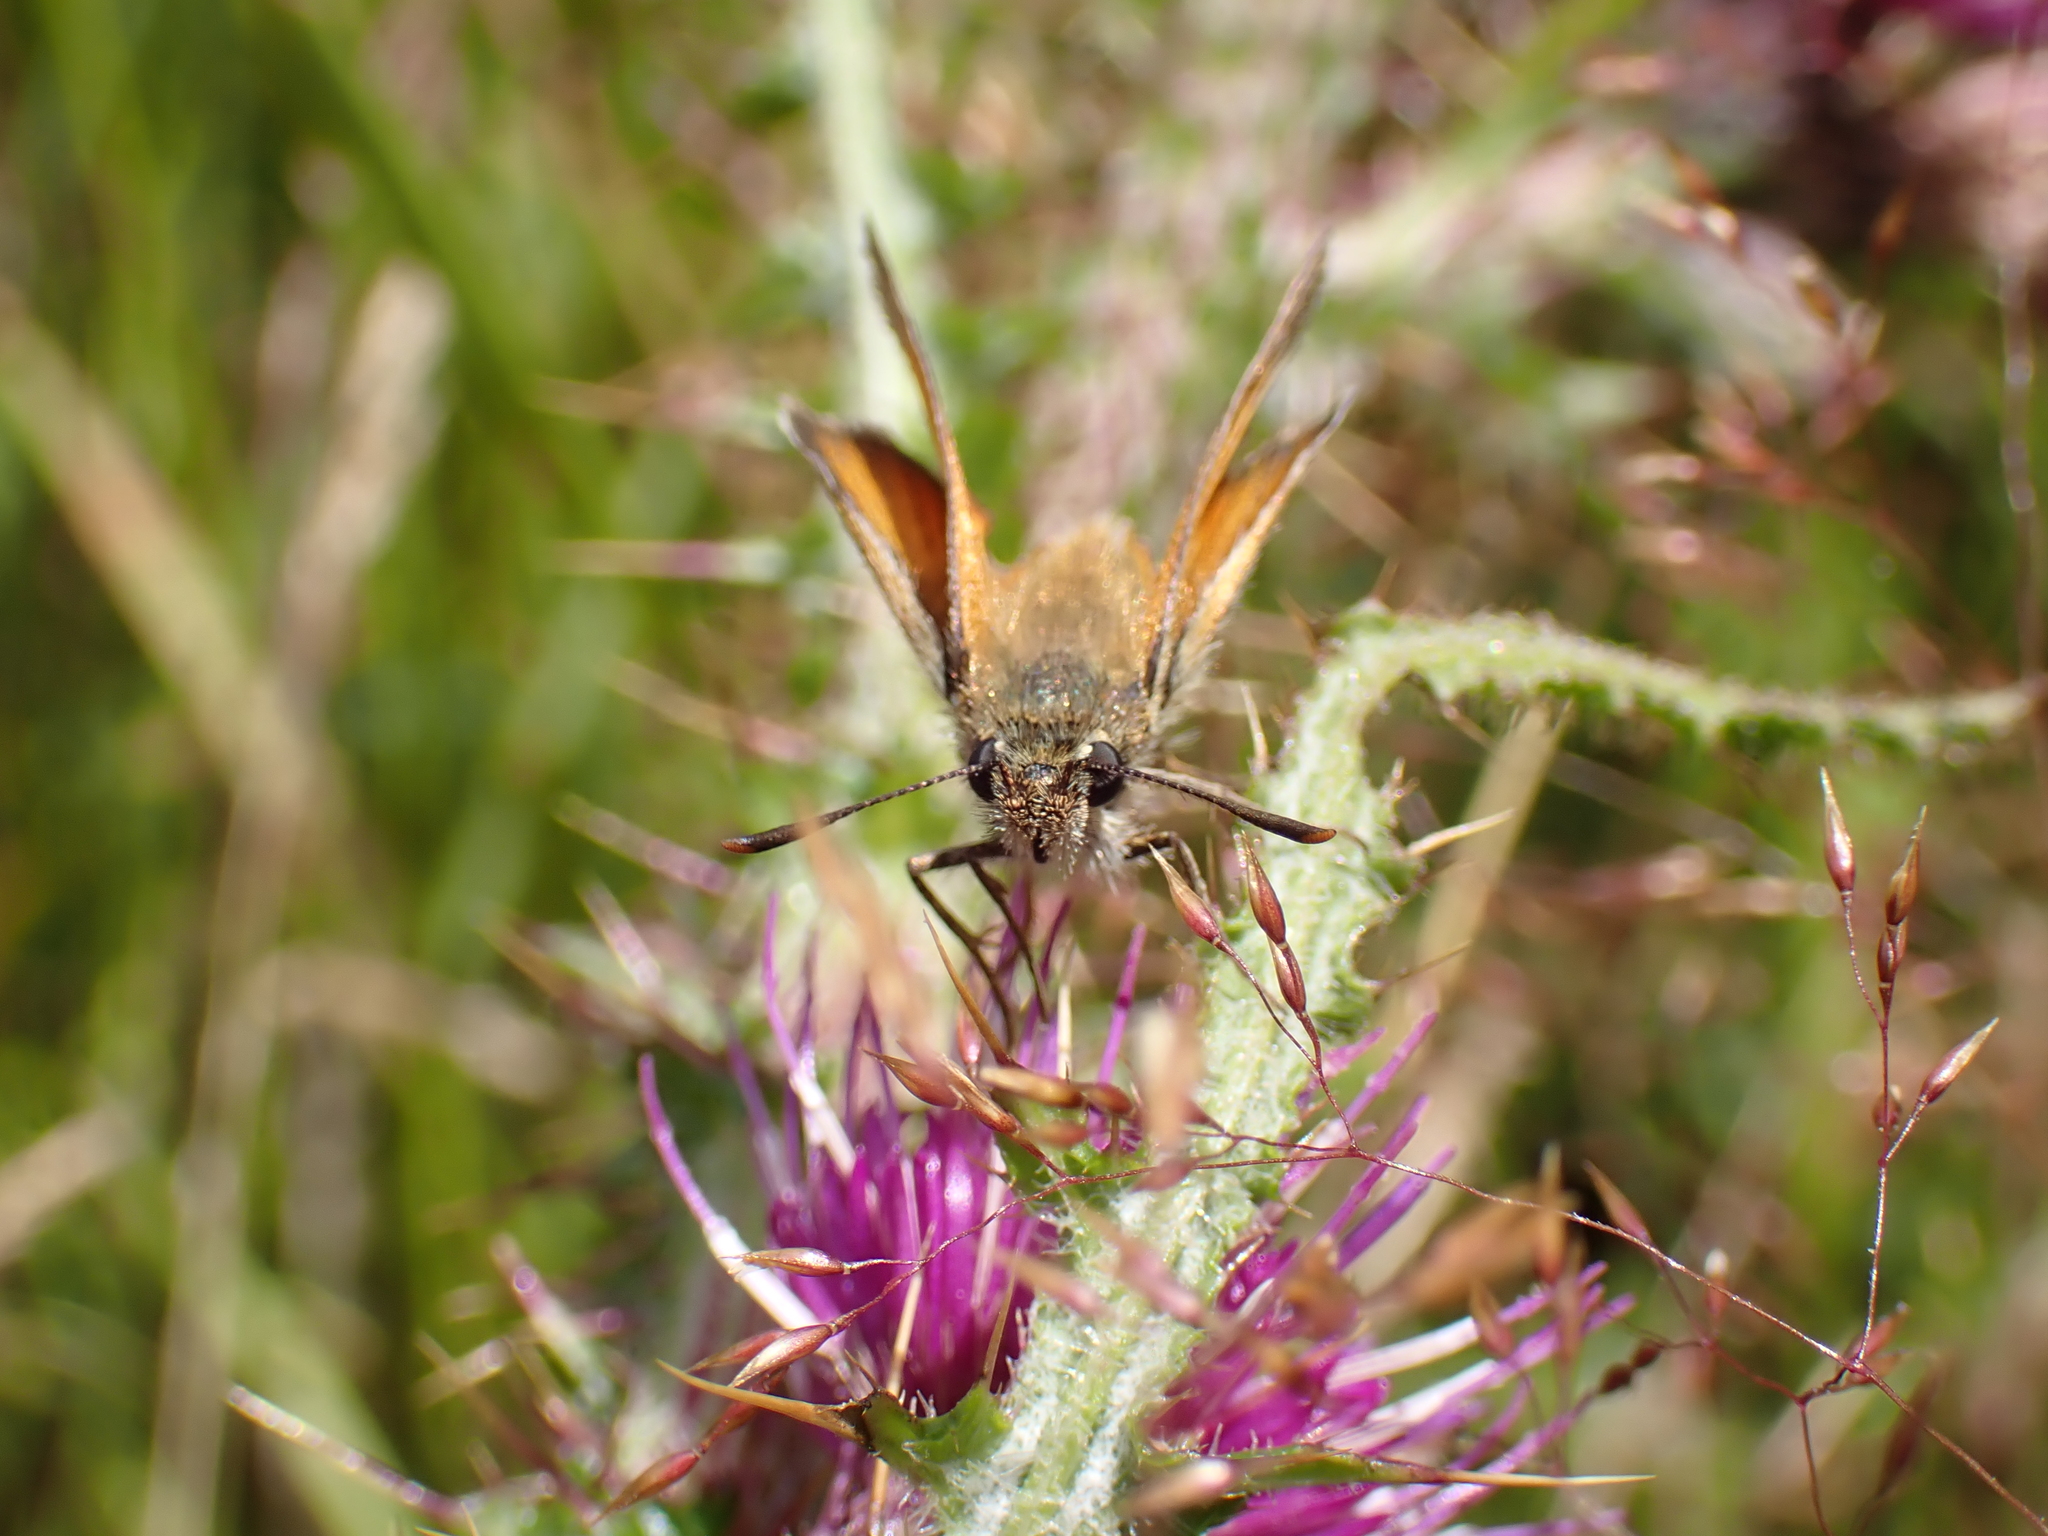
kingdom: Animalia
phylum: Arthropoda
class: Insecta
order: Lepidoptera
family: Hesperiidae
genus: Thymelicus
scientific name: Thymelicus sylvestris
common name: Small skipper
